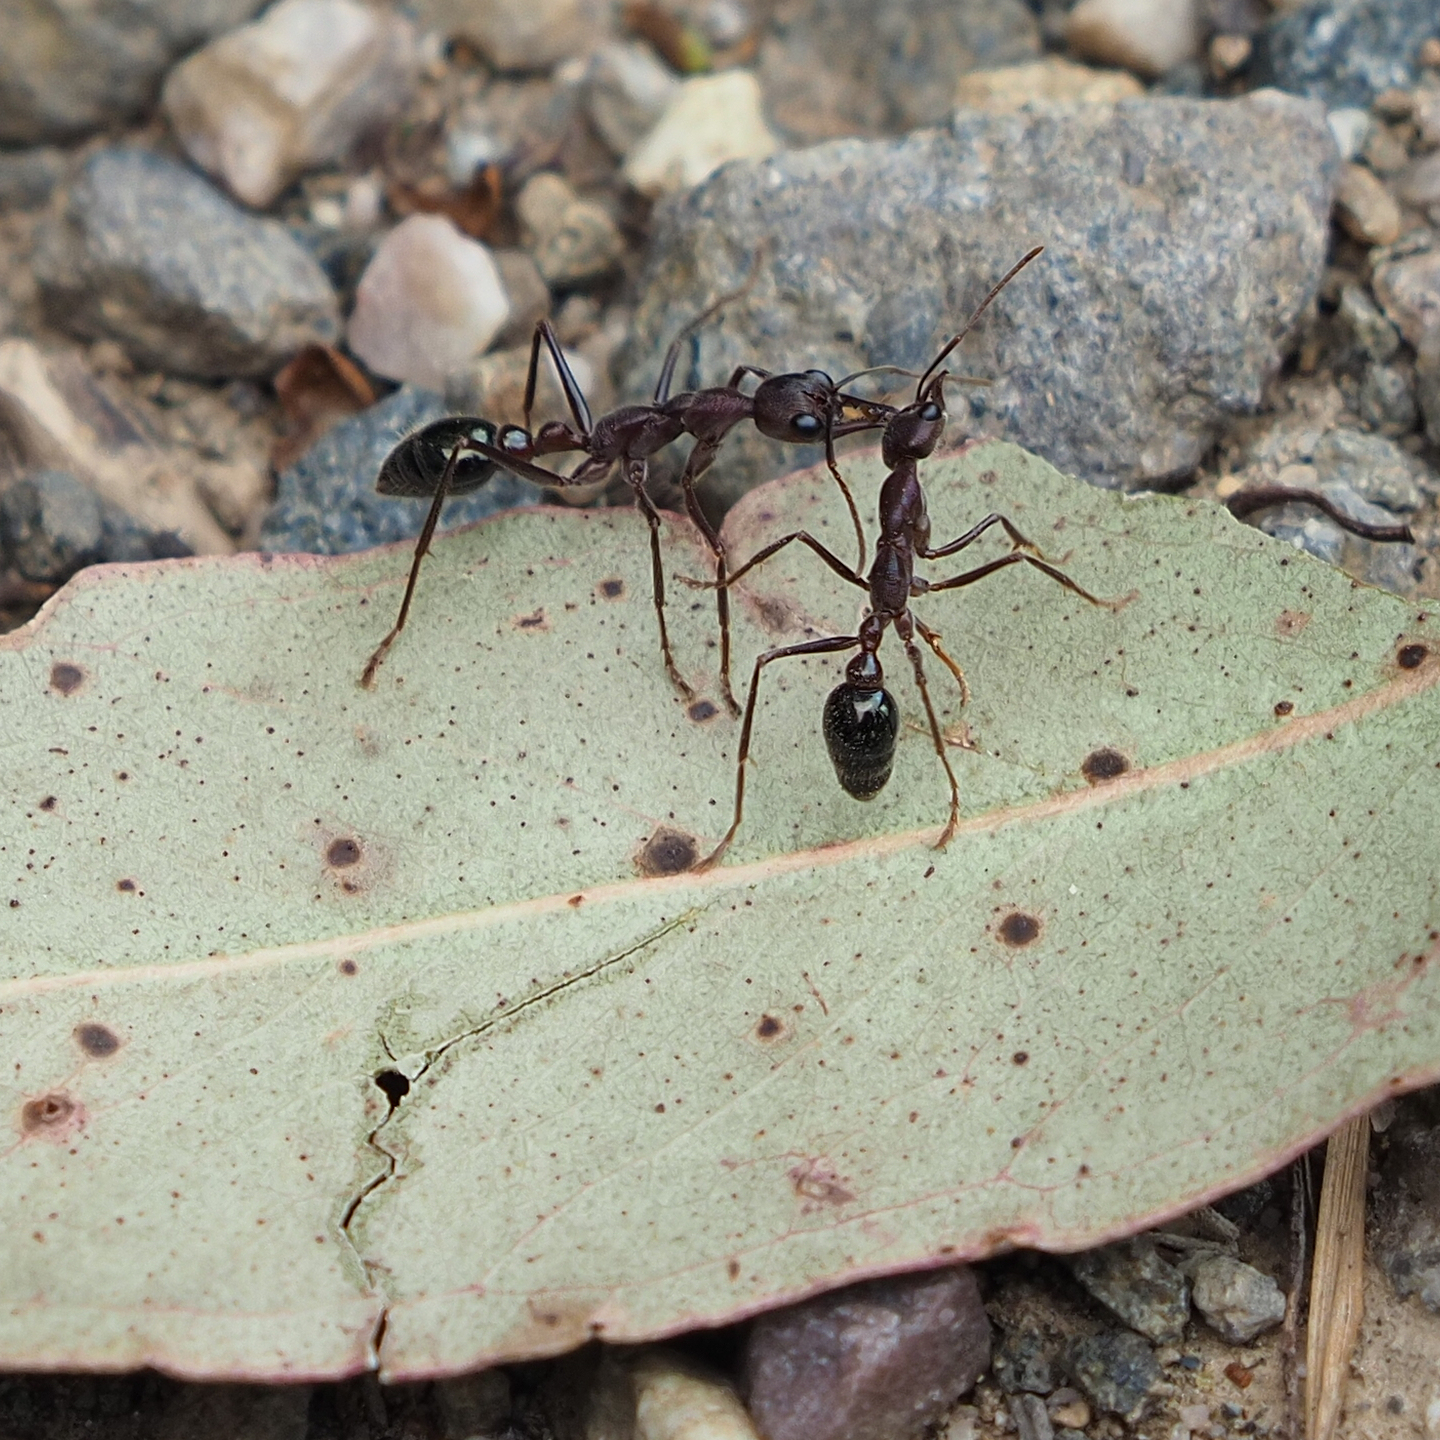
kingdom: Animalia
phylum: Arthropoda
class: Insecta
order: Hymenoptera
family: Formicidae
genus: Myrmecia
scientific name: Myrmecia forficata
